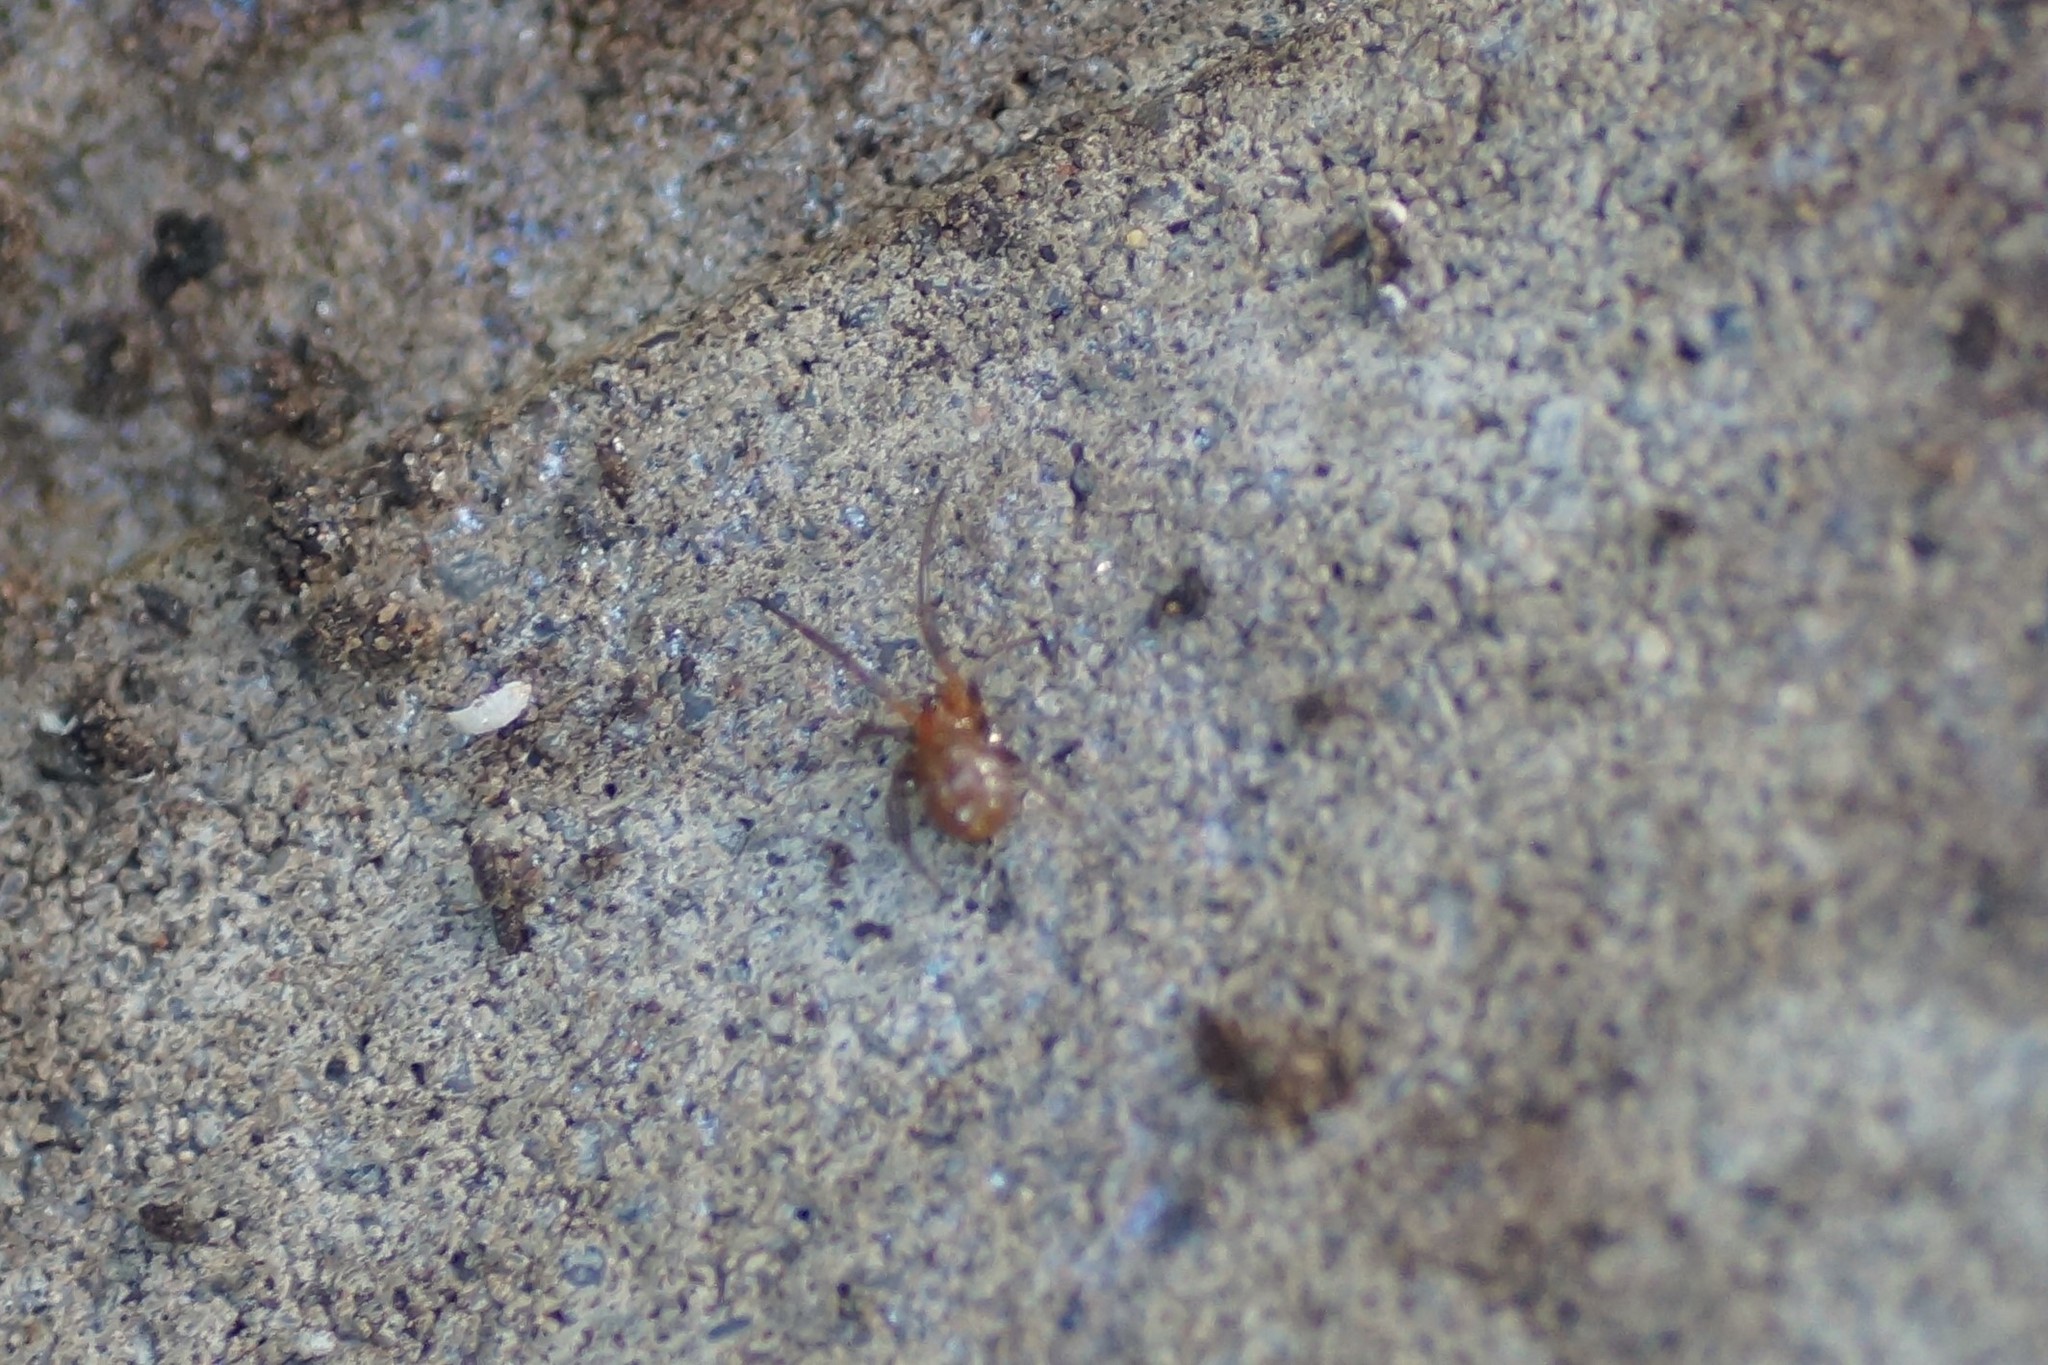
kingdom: Animalia
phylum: Arthropoda
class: Arachnida
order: Araneae
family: Theridiidae
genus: Steatoda
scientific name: Steatoda capensis
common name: Cobweb weaver
